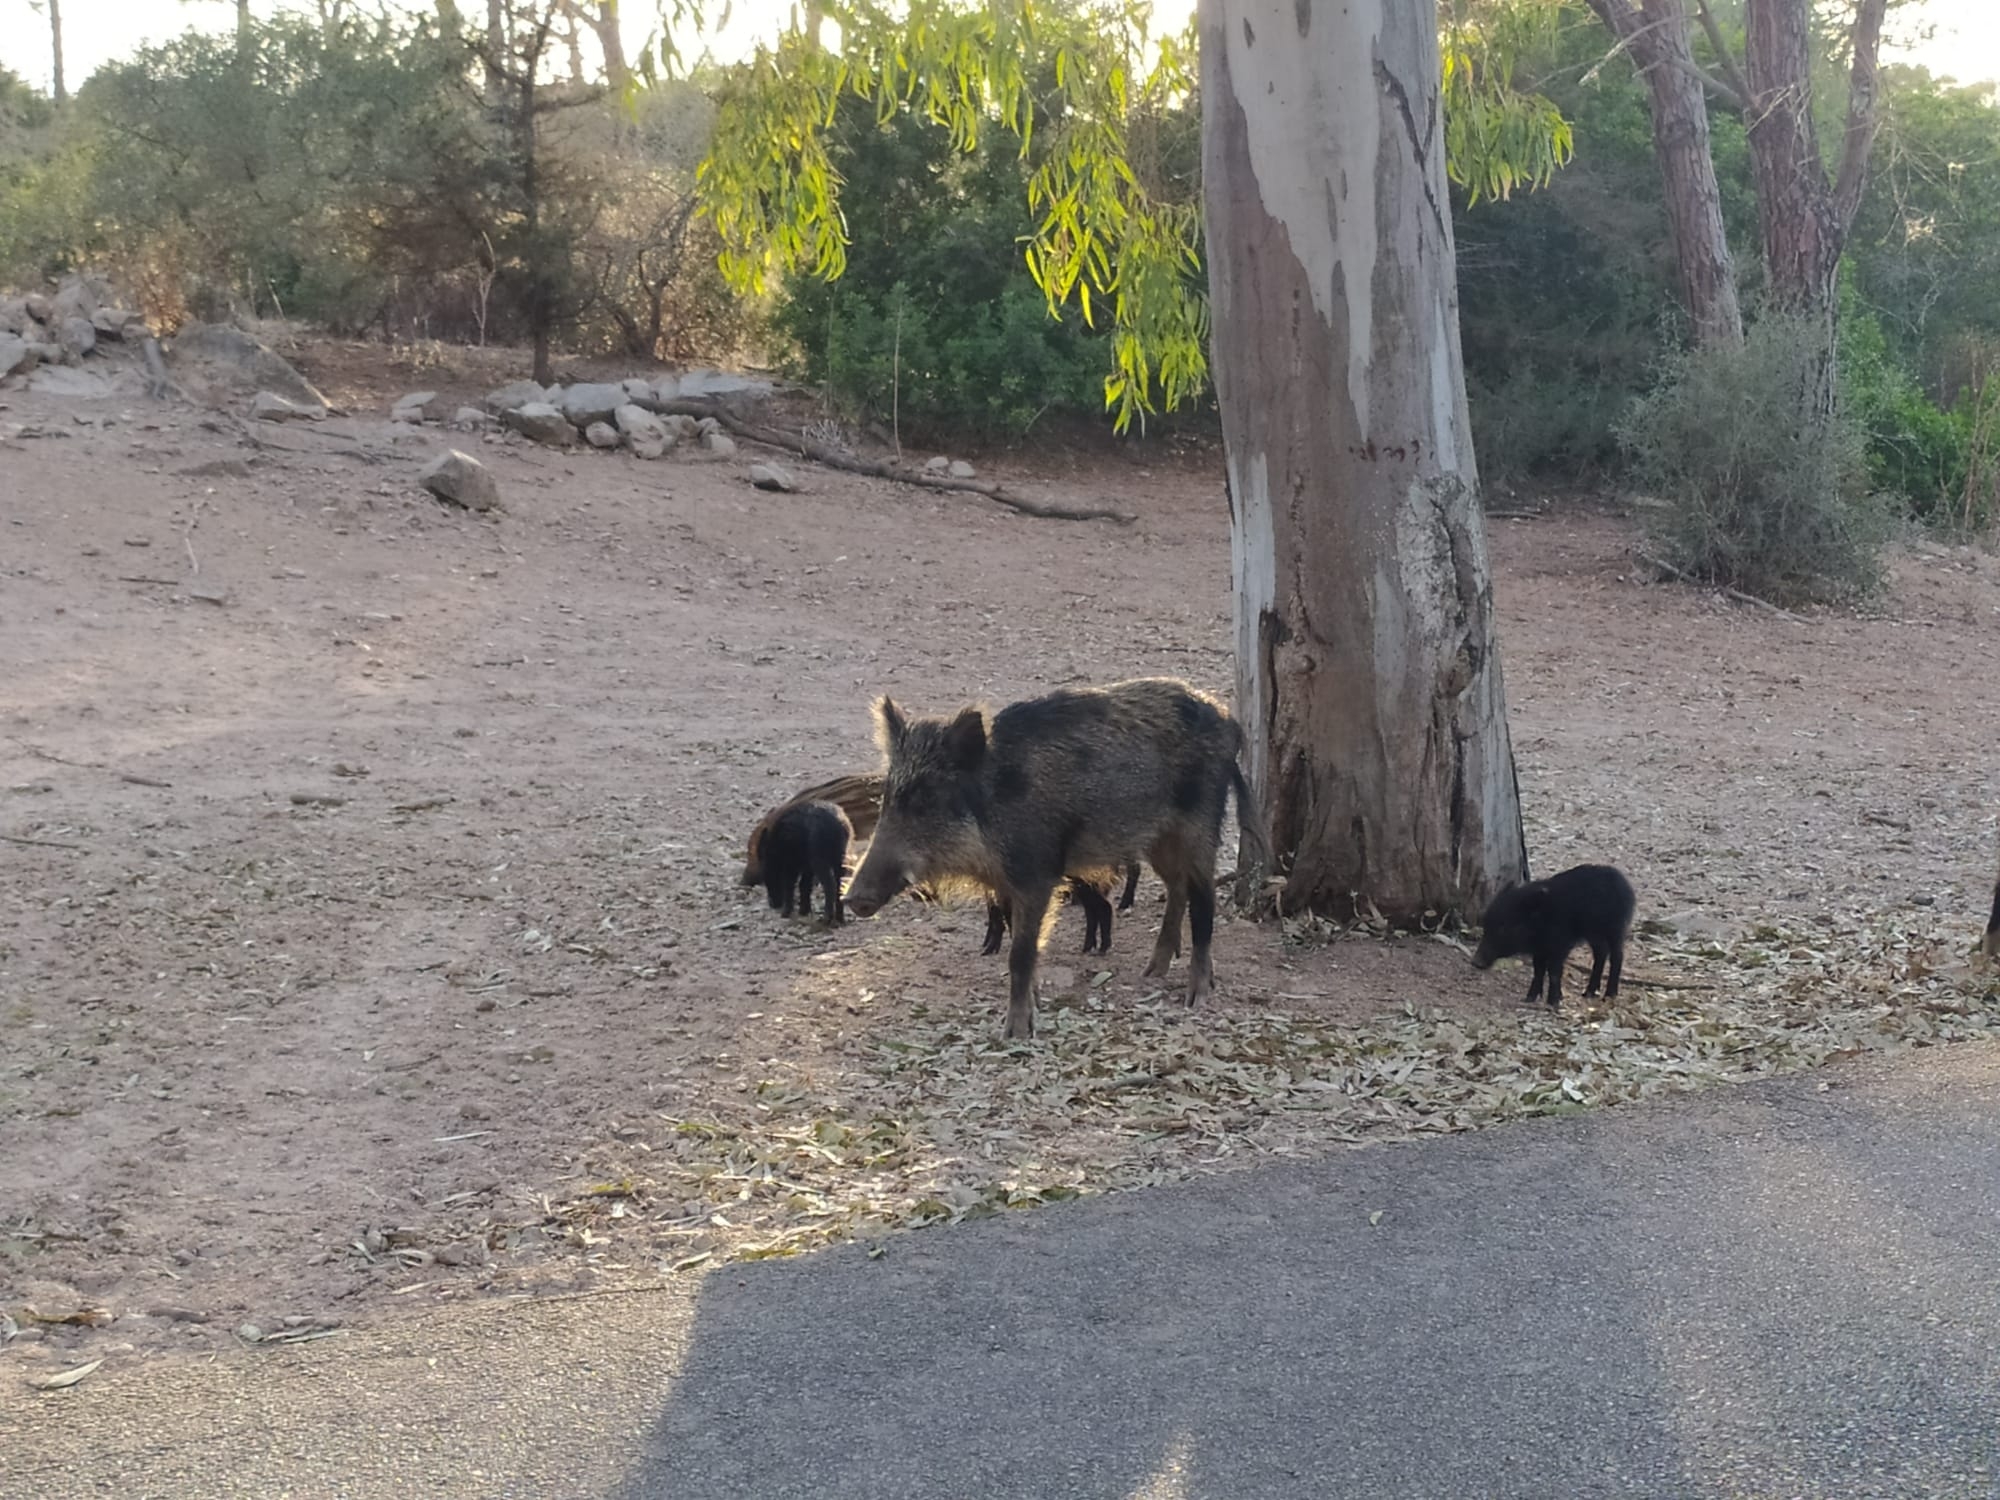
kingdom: Animalia
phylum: Chordata
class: Mammalia
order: Artiodactyla
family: Suidae
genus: Sus
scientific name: Sus scrofa
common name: Wild boar
